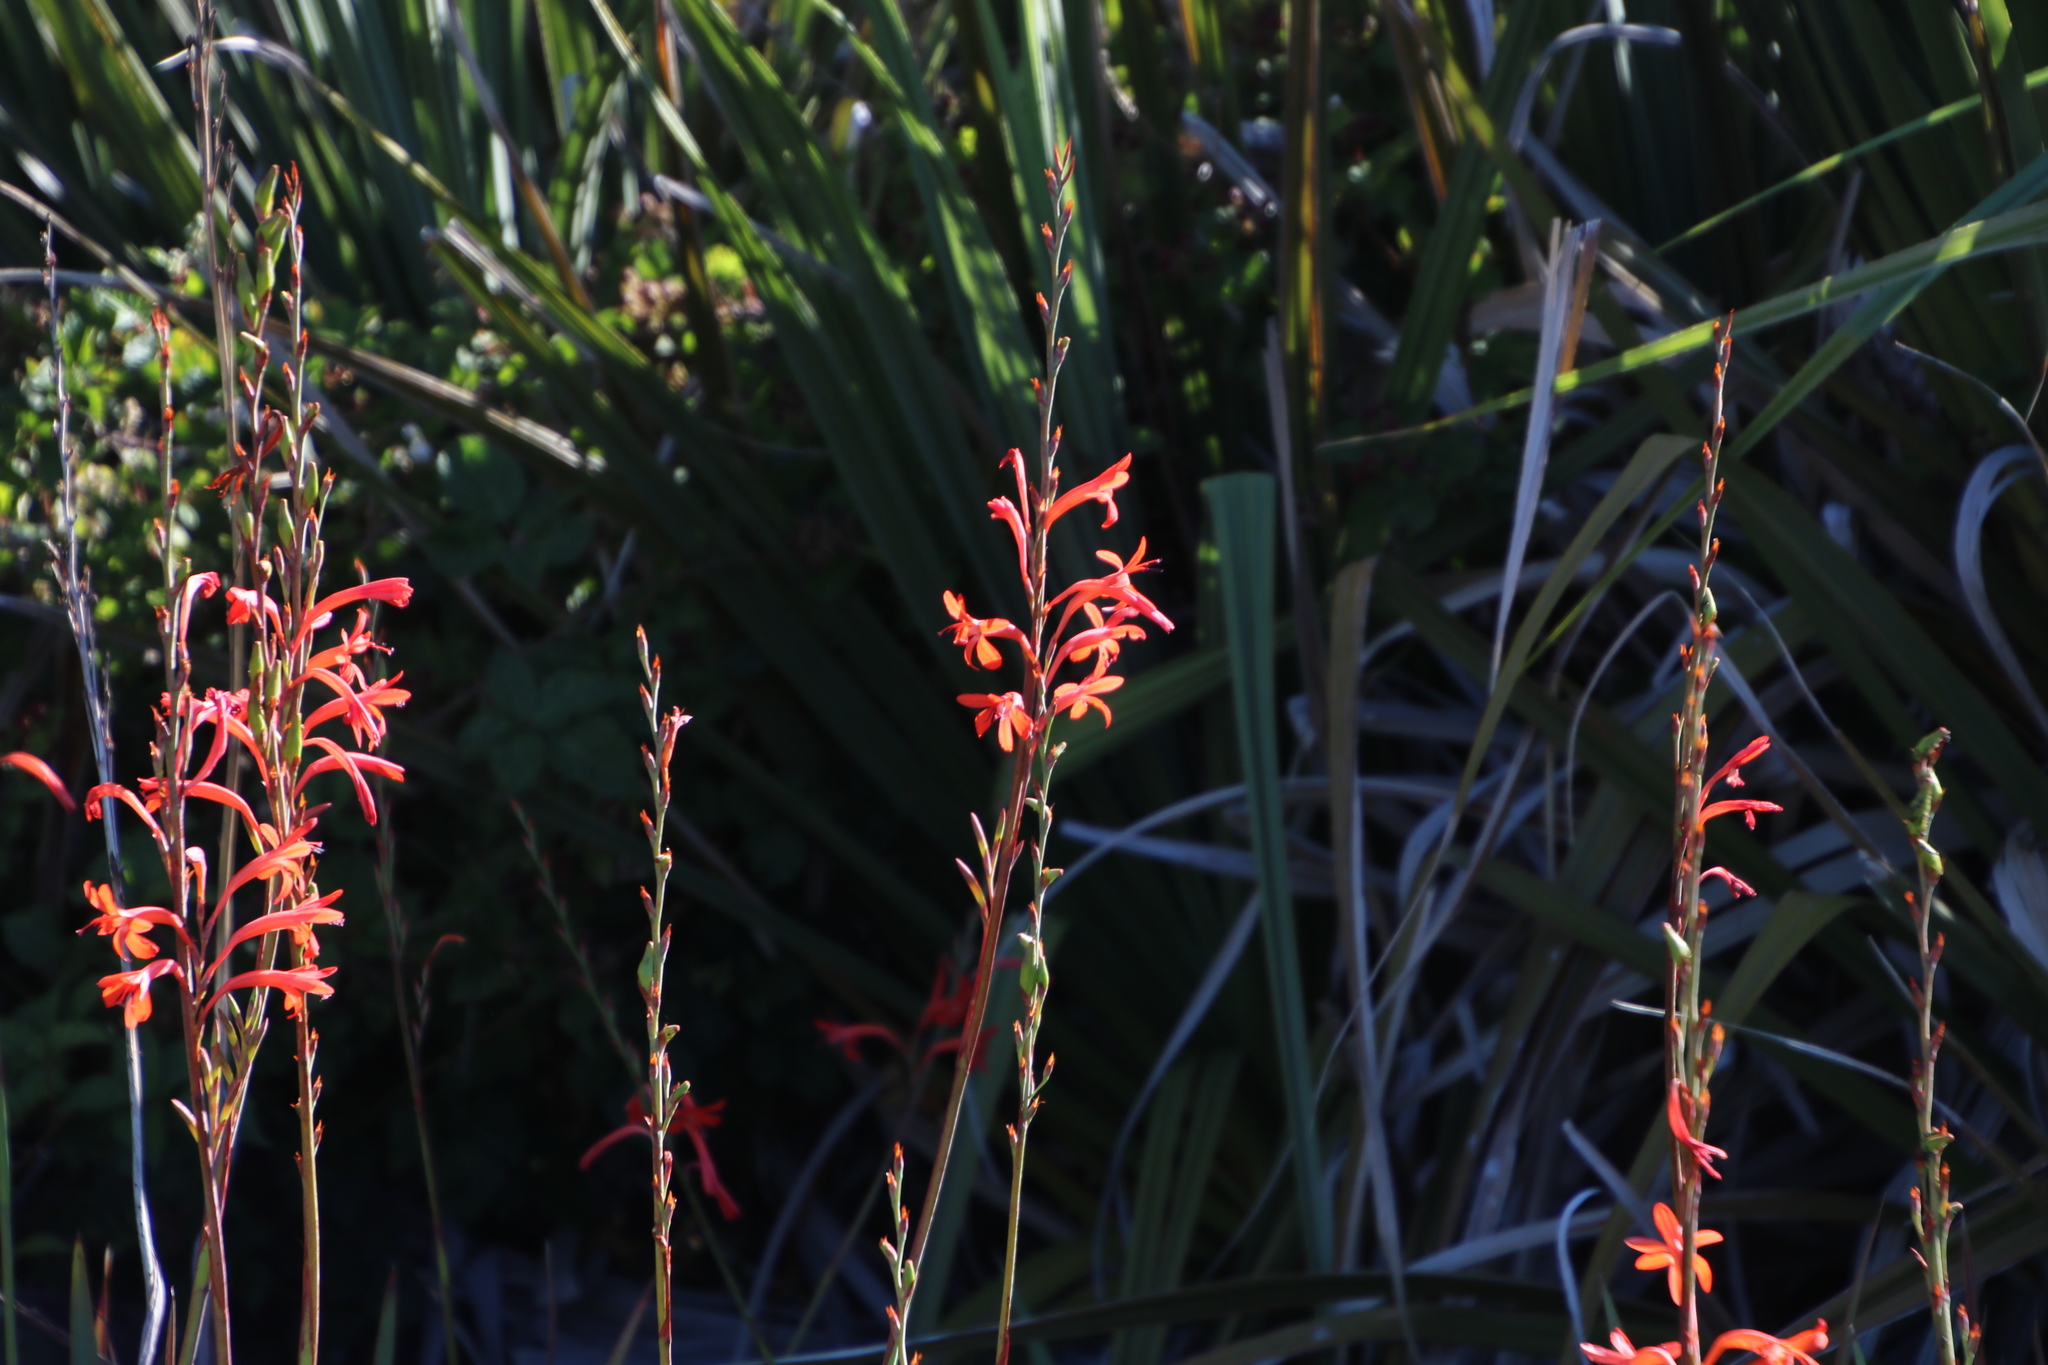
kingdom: Plantae
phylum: Tracheophyta
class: Liliopsida
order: Asparagales
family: Iridaceae
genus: Watsonia
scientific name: Watsonia angusta
